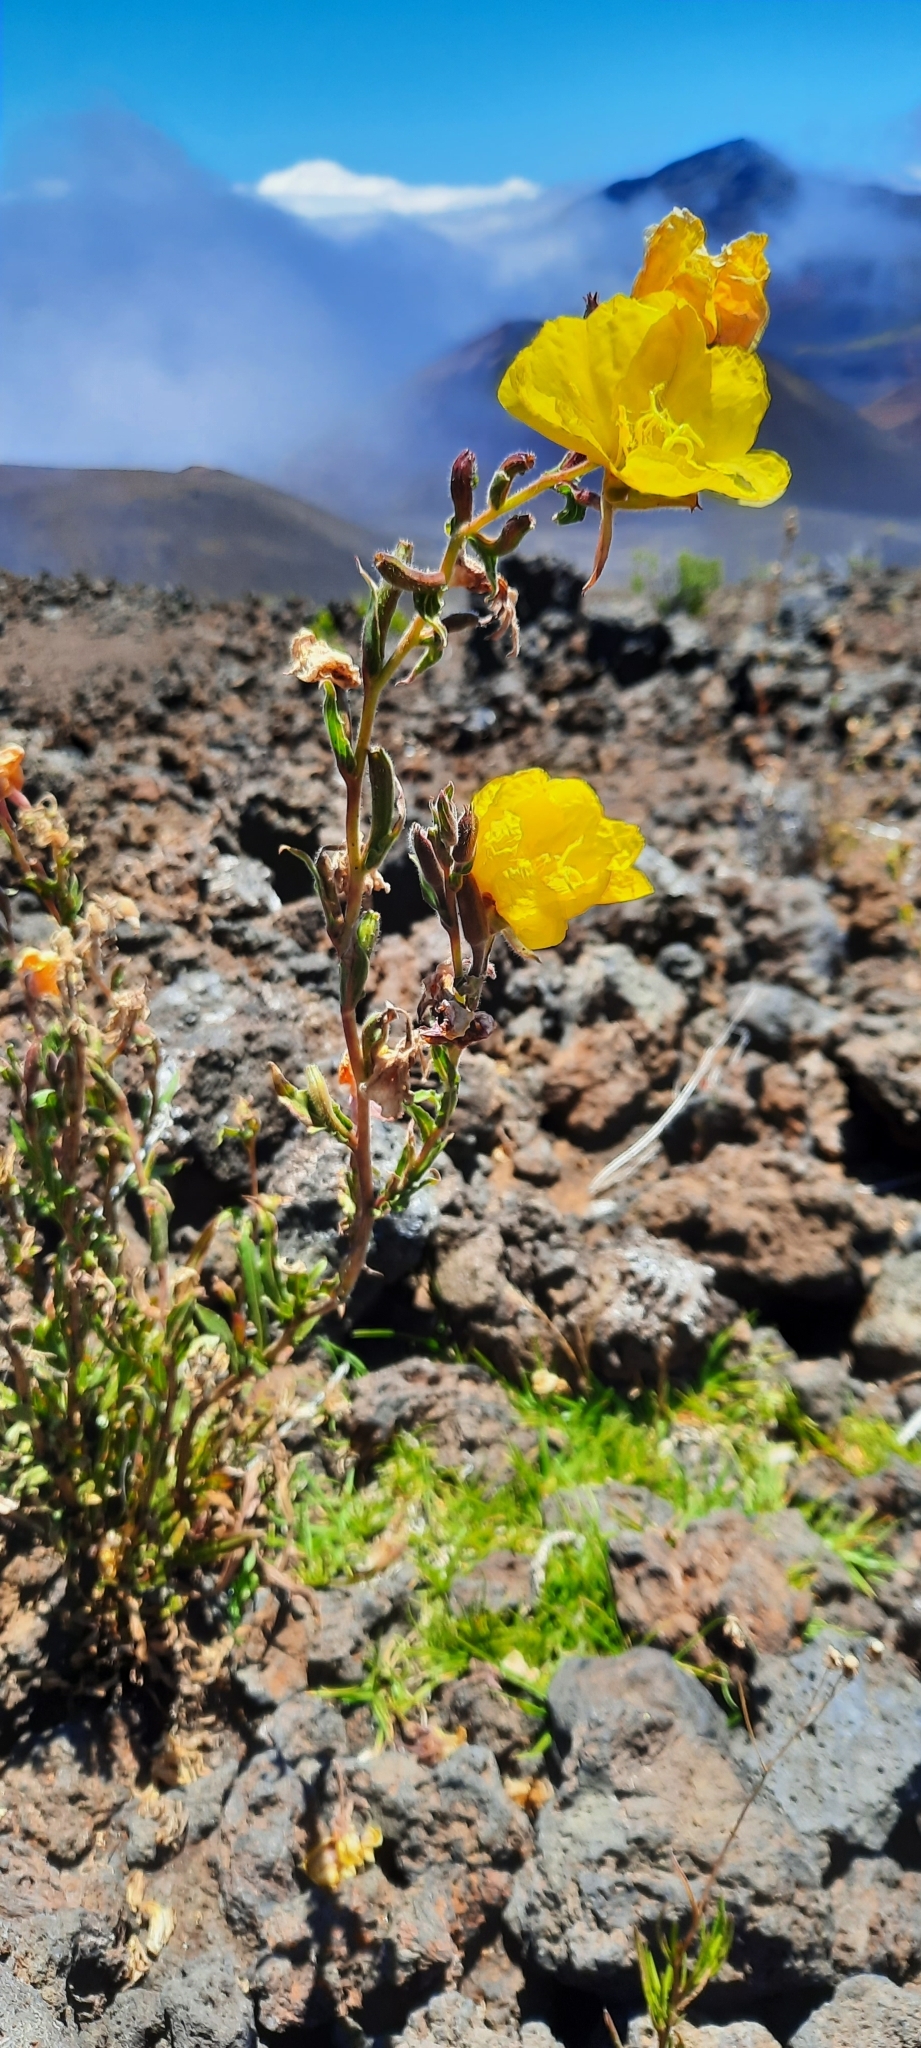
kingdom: Plantae
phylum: Tracheophyta
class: Magnoliopsida
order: Myrtales
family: Onagraceae
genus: Oenothera
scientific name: Oenothera stricta
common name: Fragrant evening-primrose
